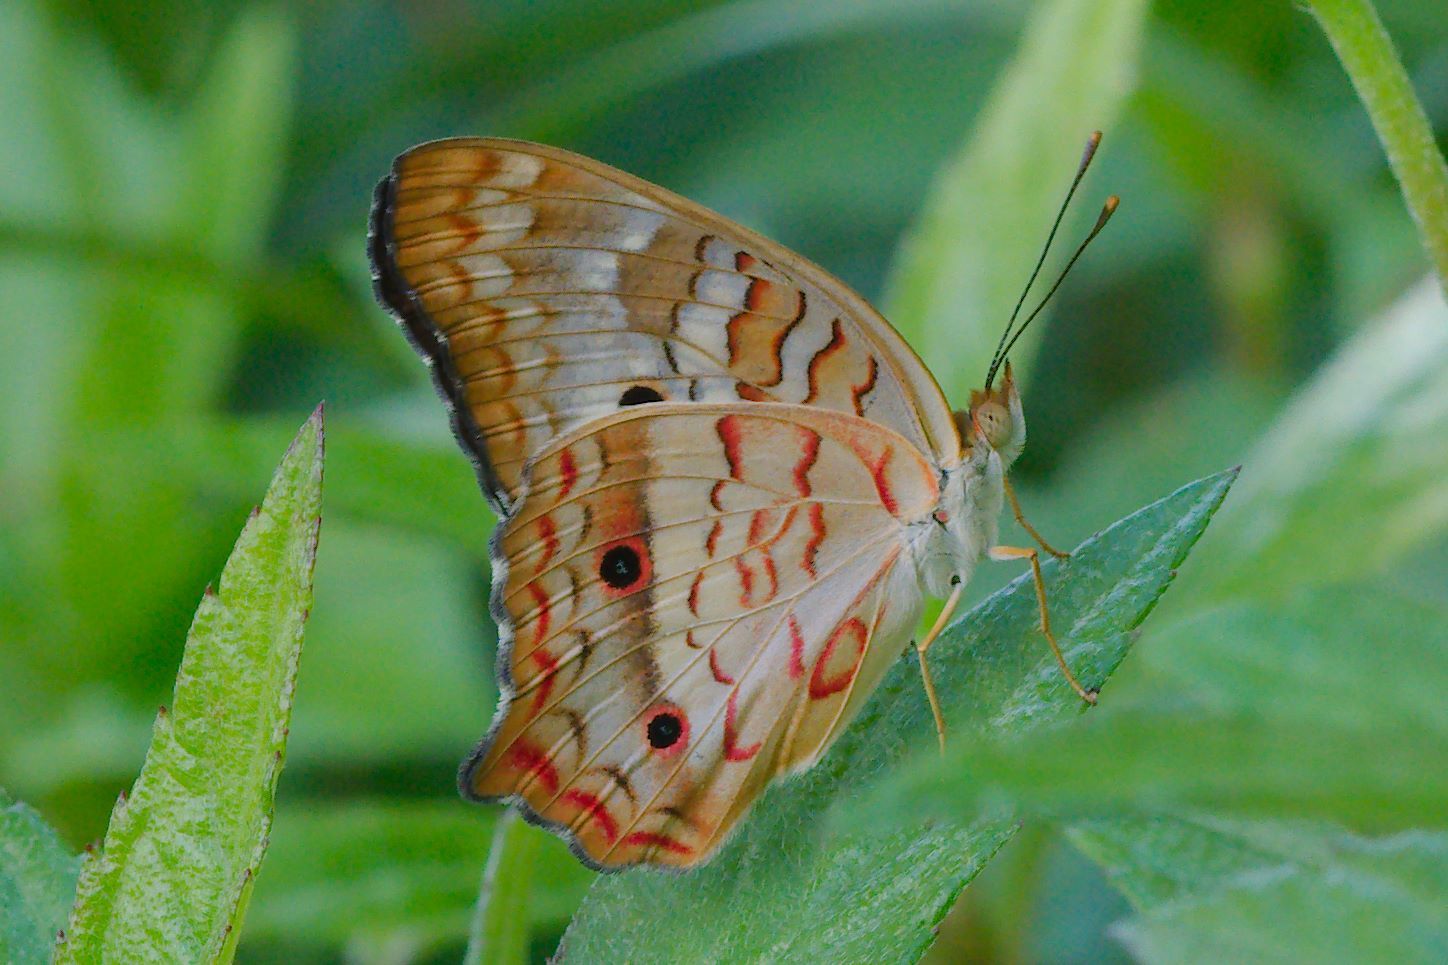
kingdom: Animalia
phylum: Arthropoda
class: Insecta
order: Lepidoptera
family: Nymphalidae
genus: Anartia
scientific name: Anartia jatrophae
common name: White peacock
